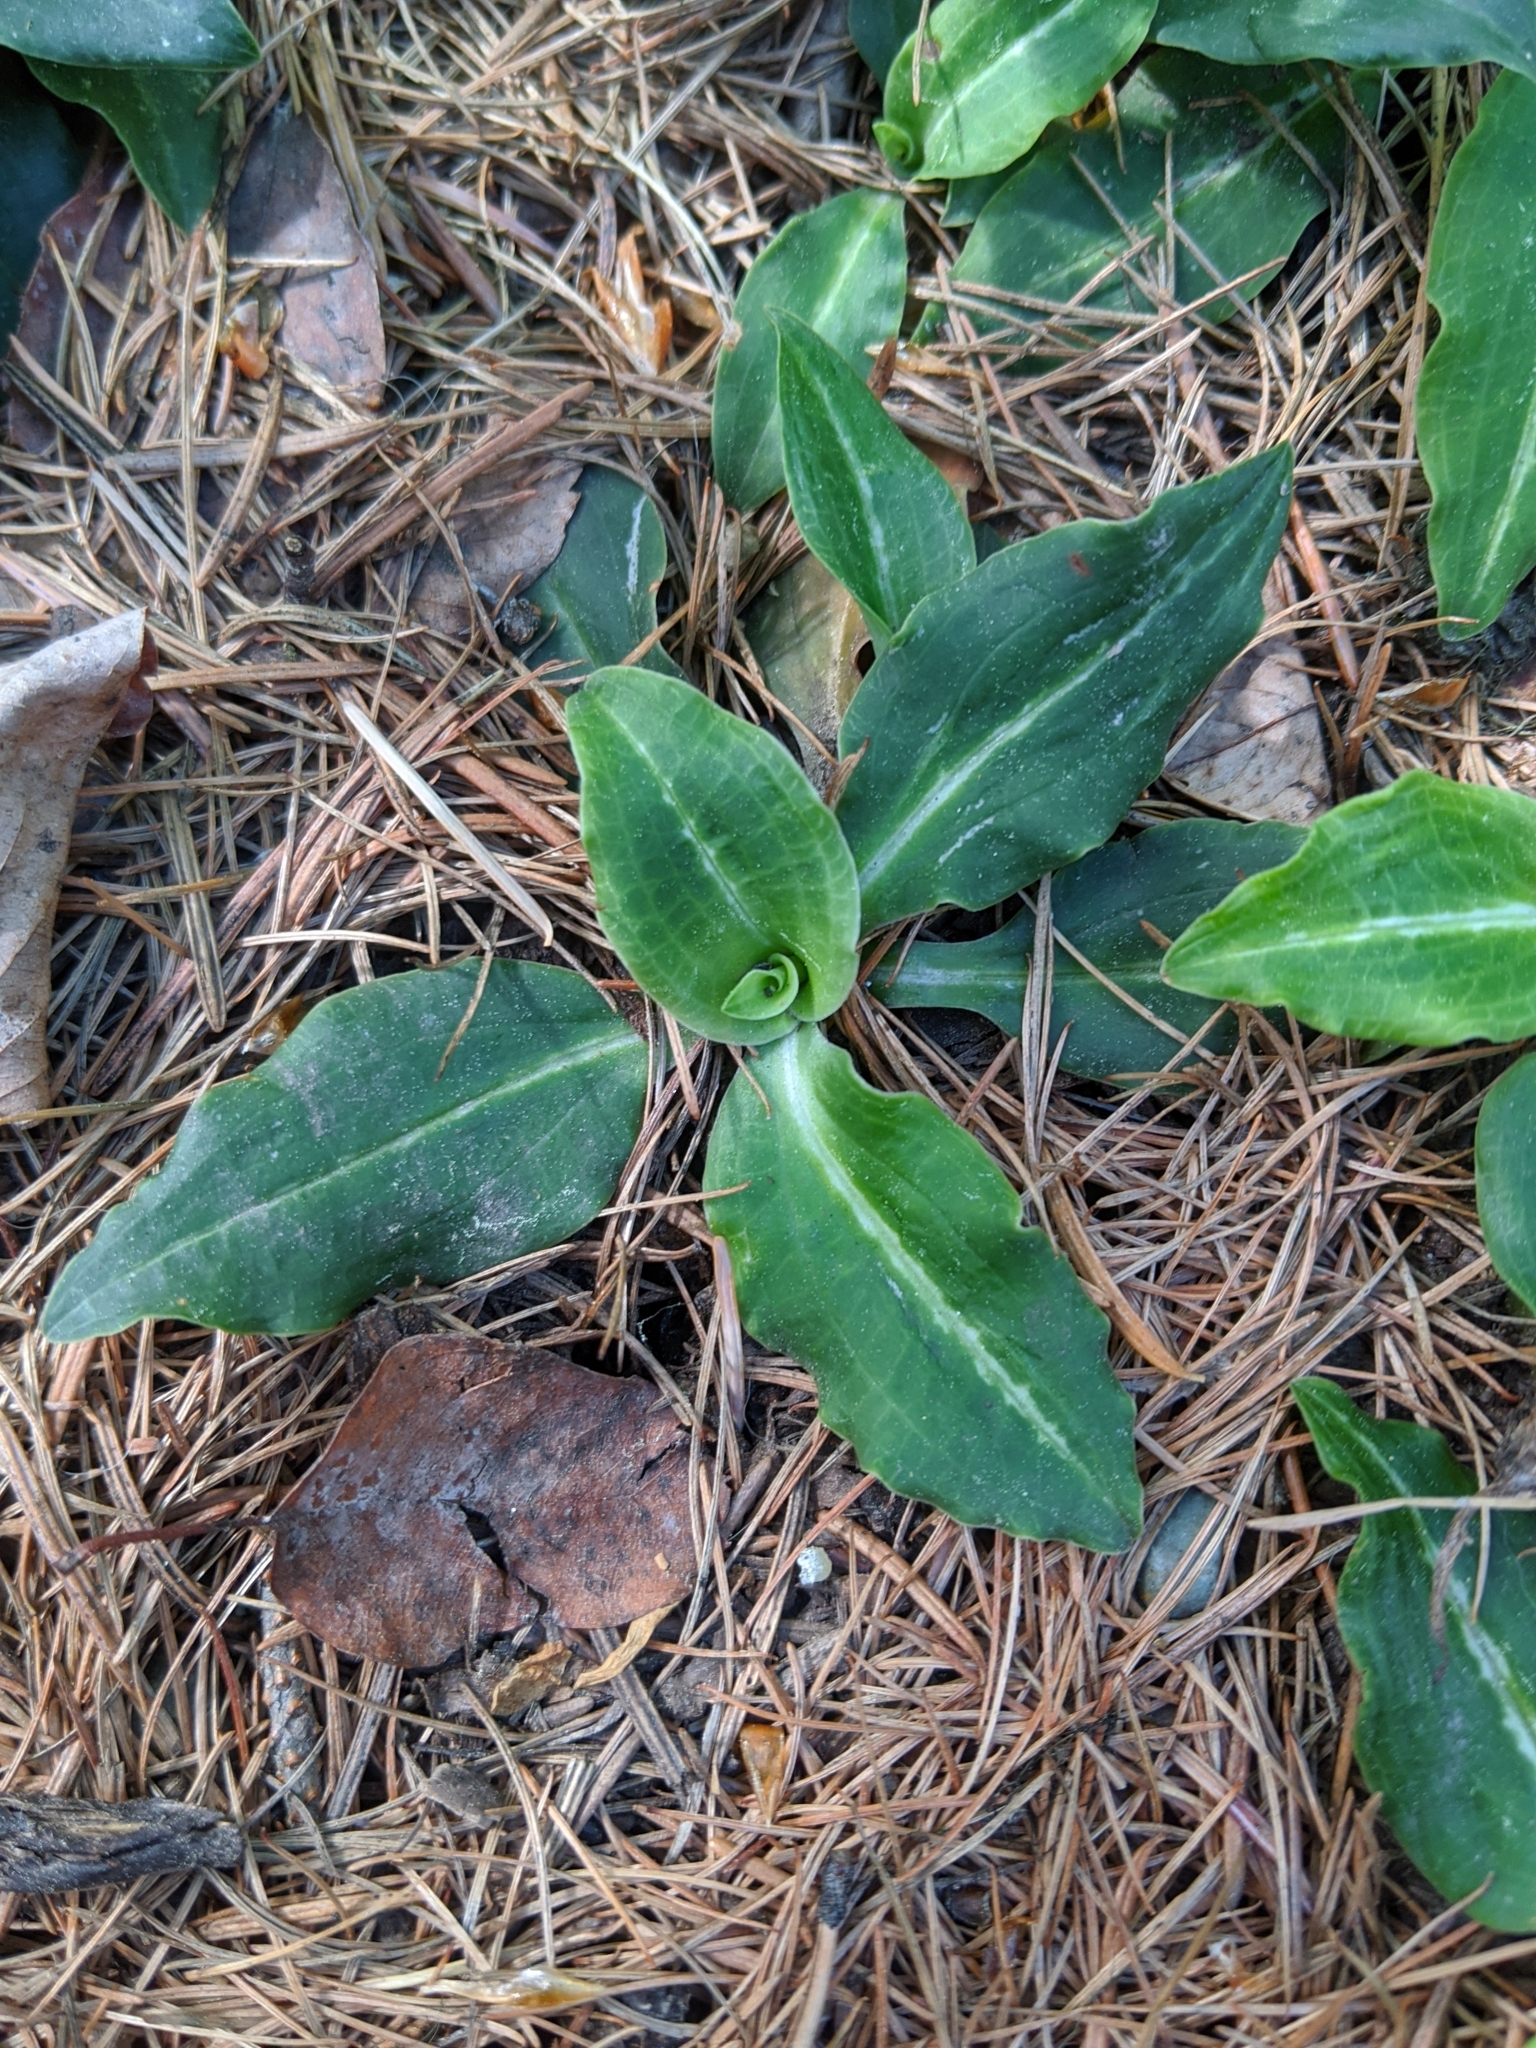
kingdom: Plantae
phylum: Tracheophyta
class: Liliopsida
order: Asparagales
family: Orchidaceae
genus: Goodyera
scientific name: Goodyera oblongifolia
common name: Giant rattlesnake-plantain
